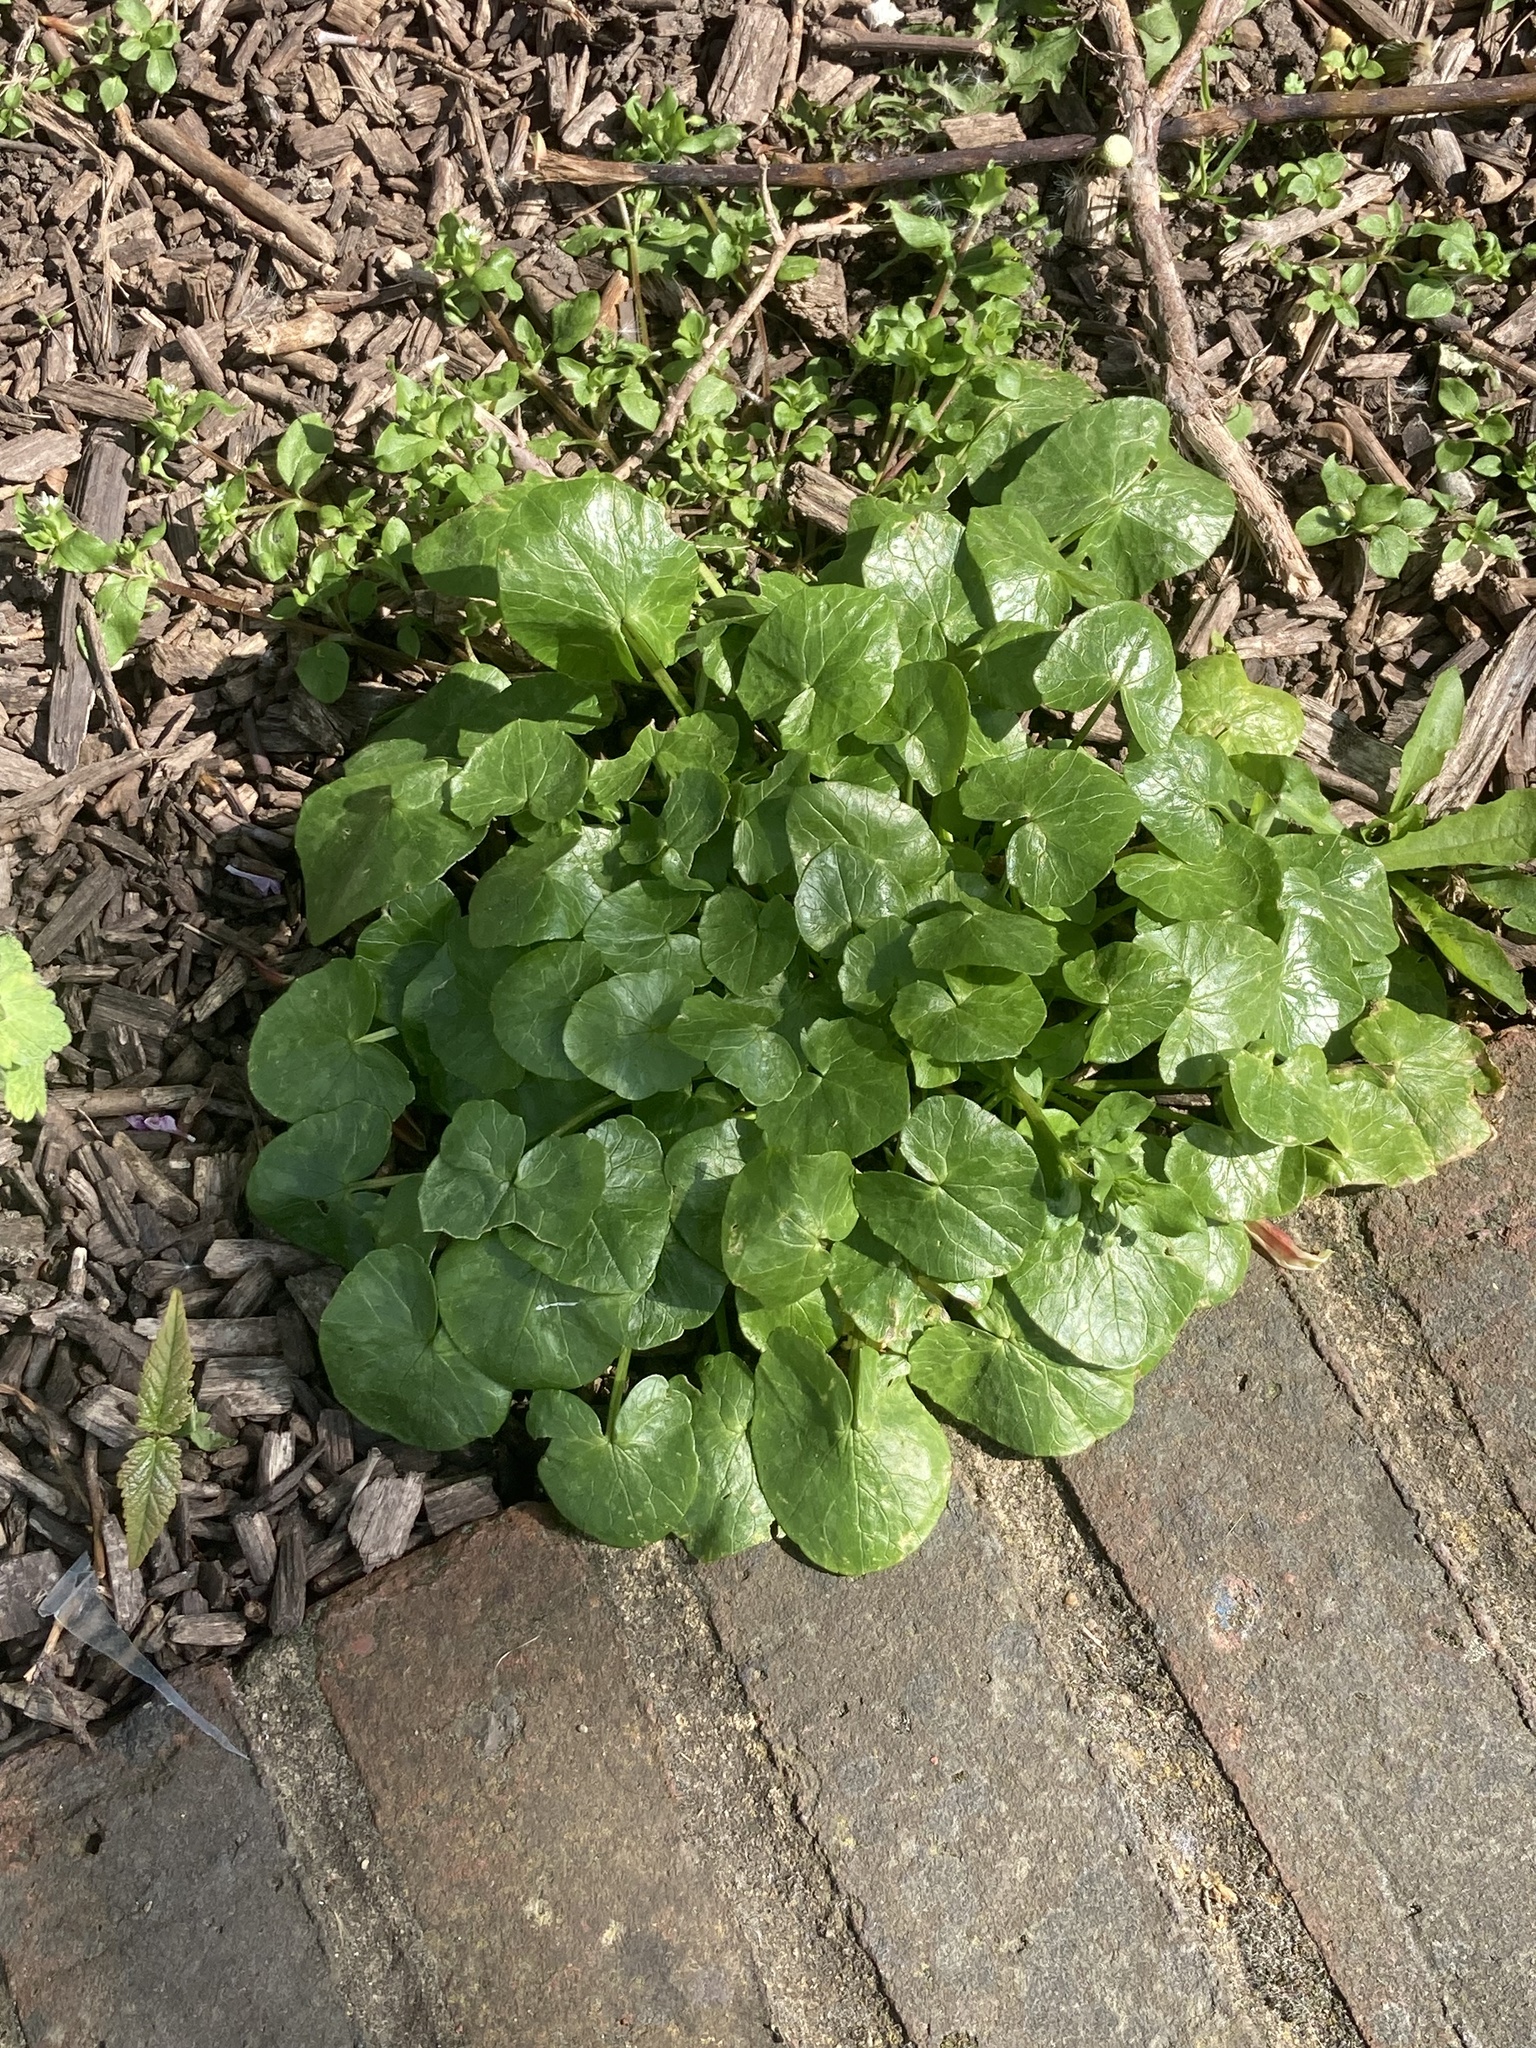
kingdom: Plantae
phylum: Tracheophyta
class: Magnoliopsida
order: Ranunculales
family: Ranunculaceae
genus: Ficaria
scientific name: Ficaria verna
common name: Lesser celandine
